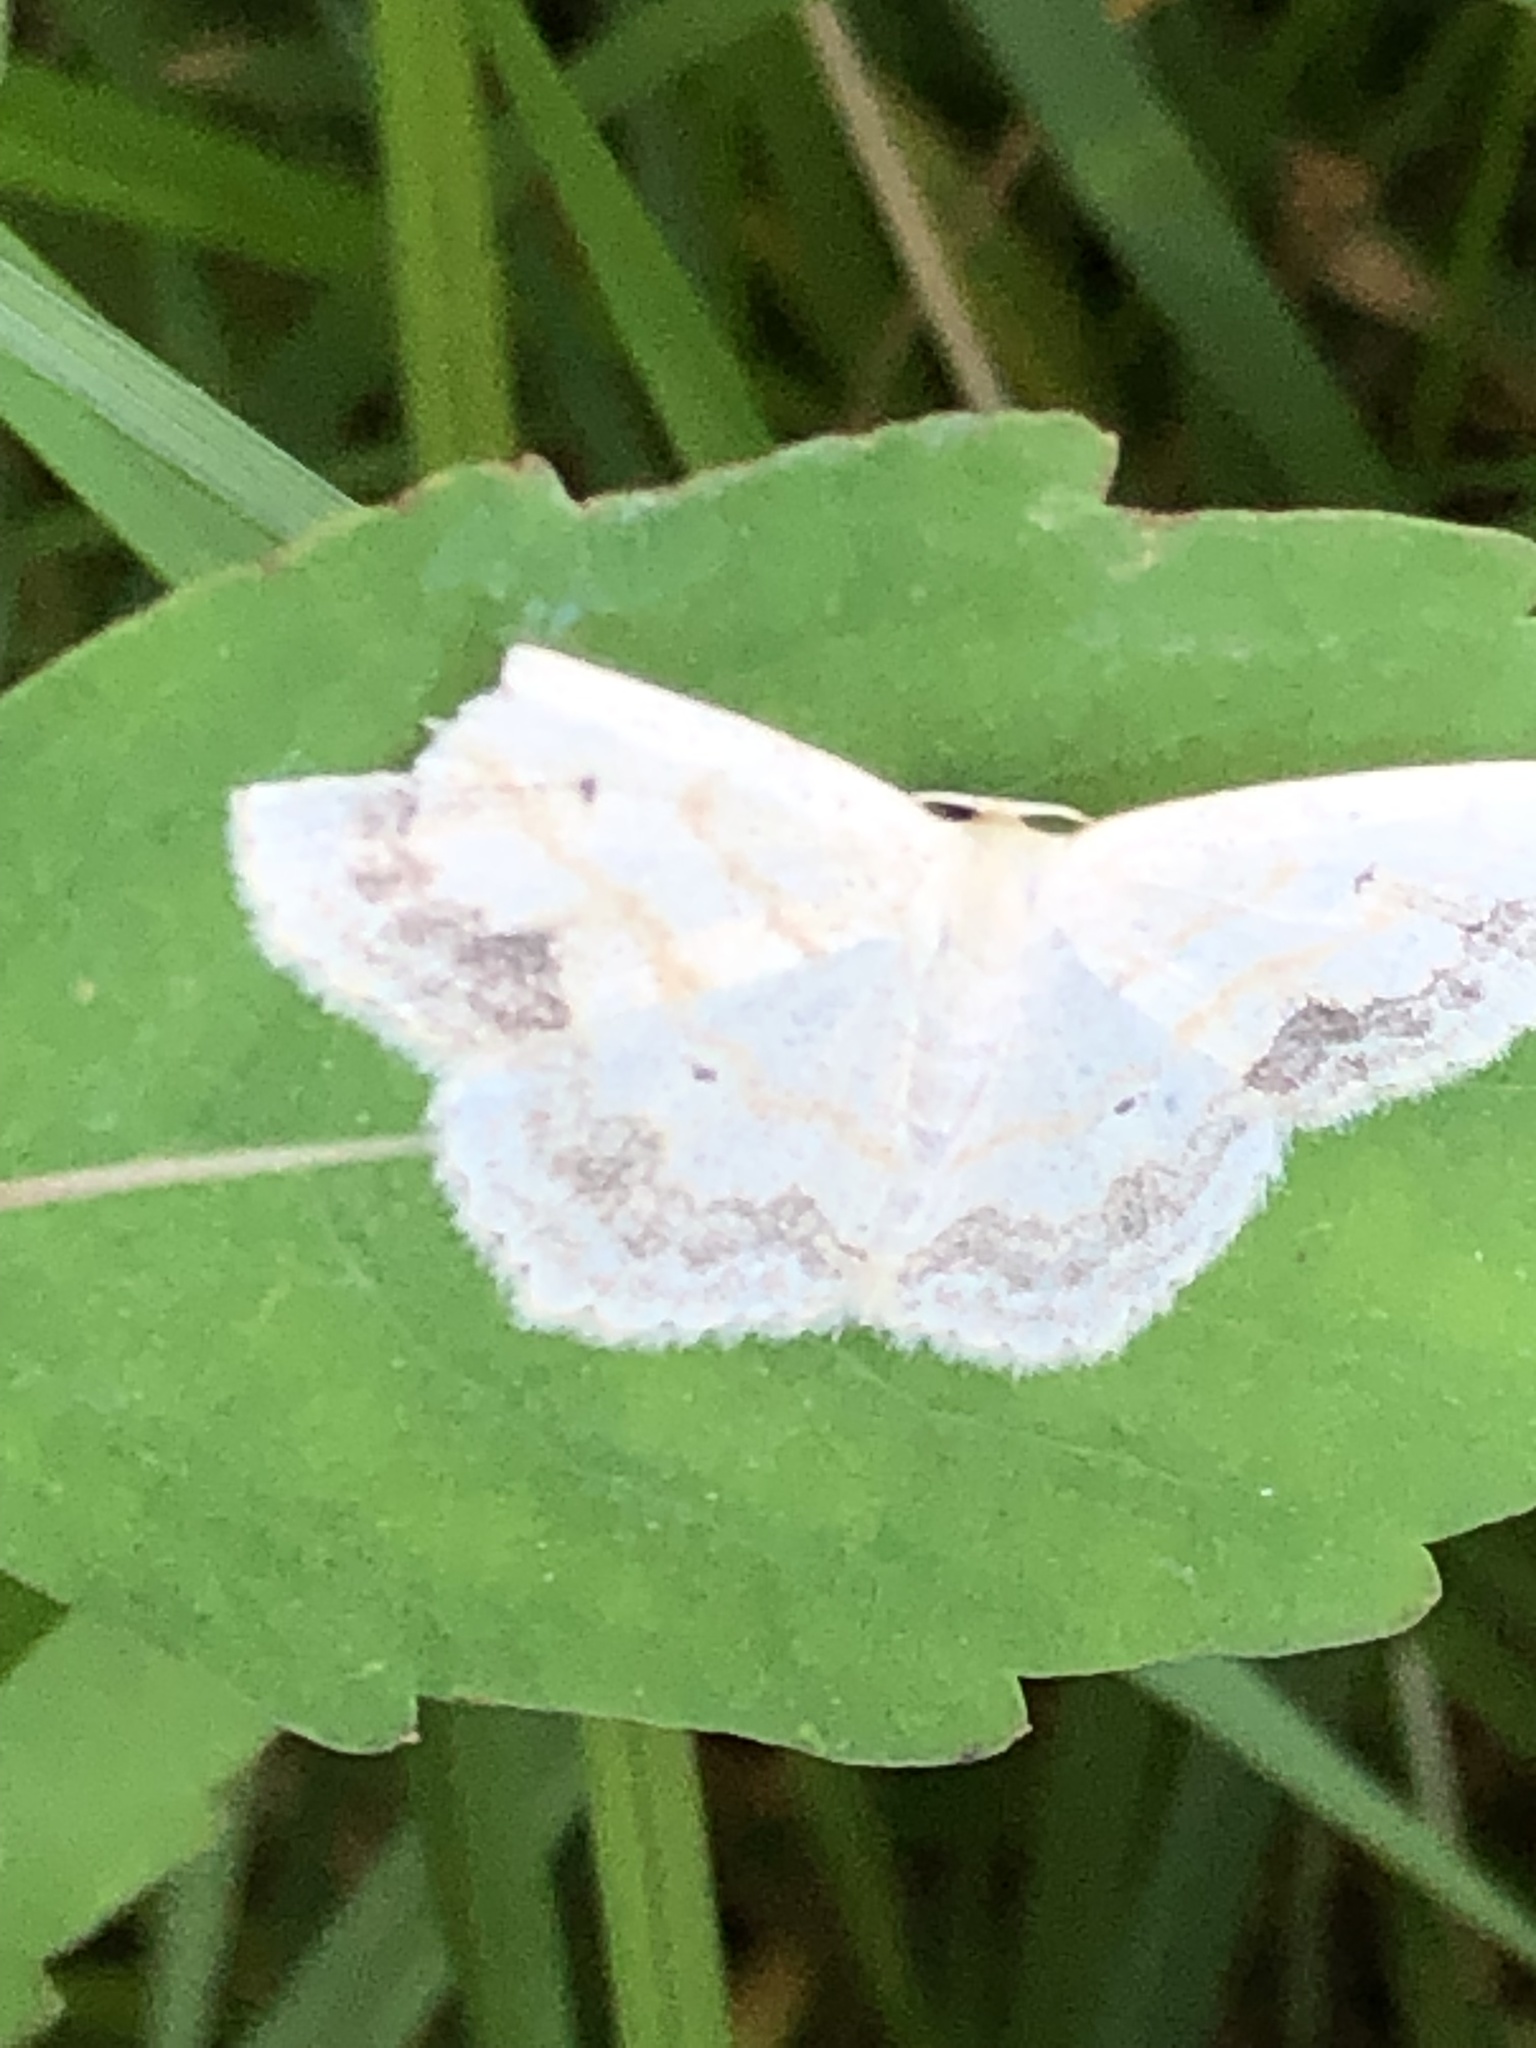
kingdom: Animalia
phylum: Arthropoda
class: Insecta
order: Lepidoptera
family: Geometridae
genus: Scopula
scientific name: Scopula limboundata
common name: Large lace border
